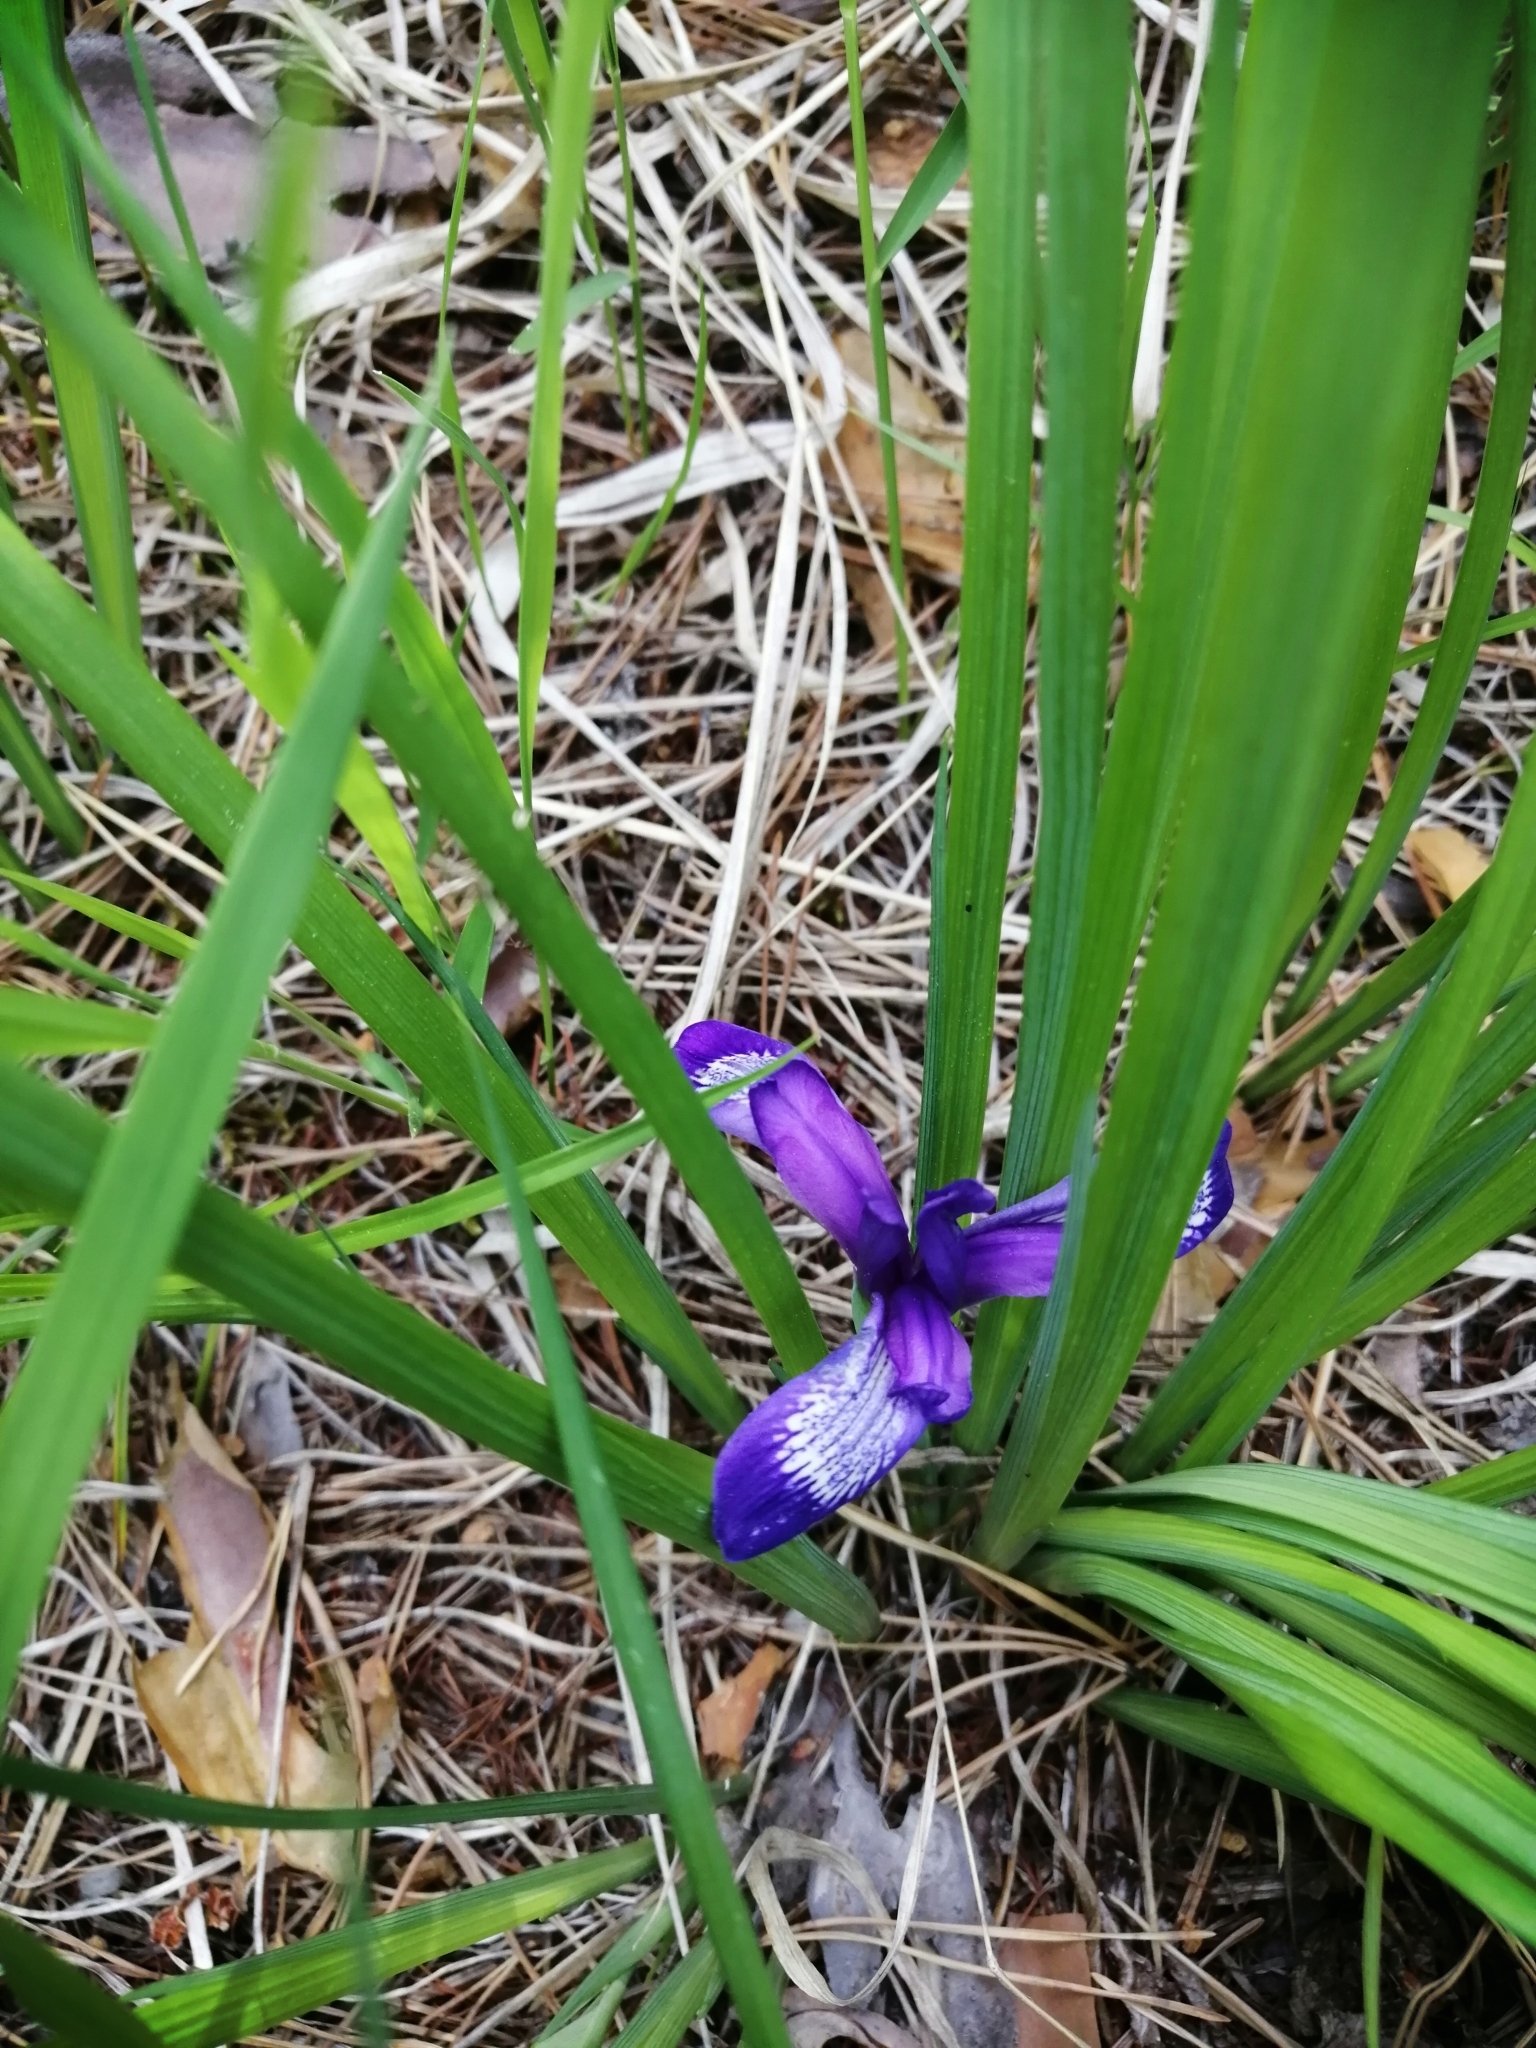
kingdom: Plantae
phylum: Tracheophyta
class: Liliopsida
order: Asparagales
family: Iridaceae
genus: Iris
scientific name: Iris ruthenica
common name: Purple-bract iris
